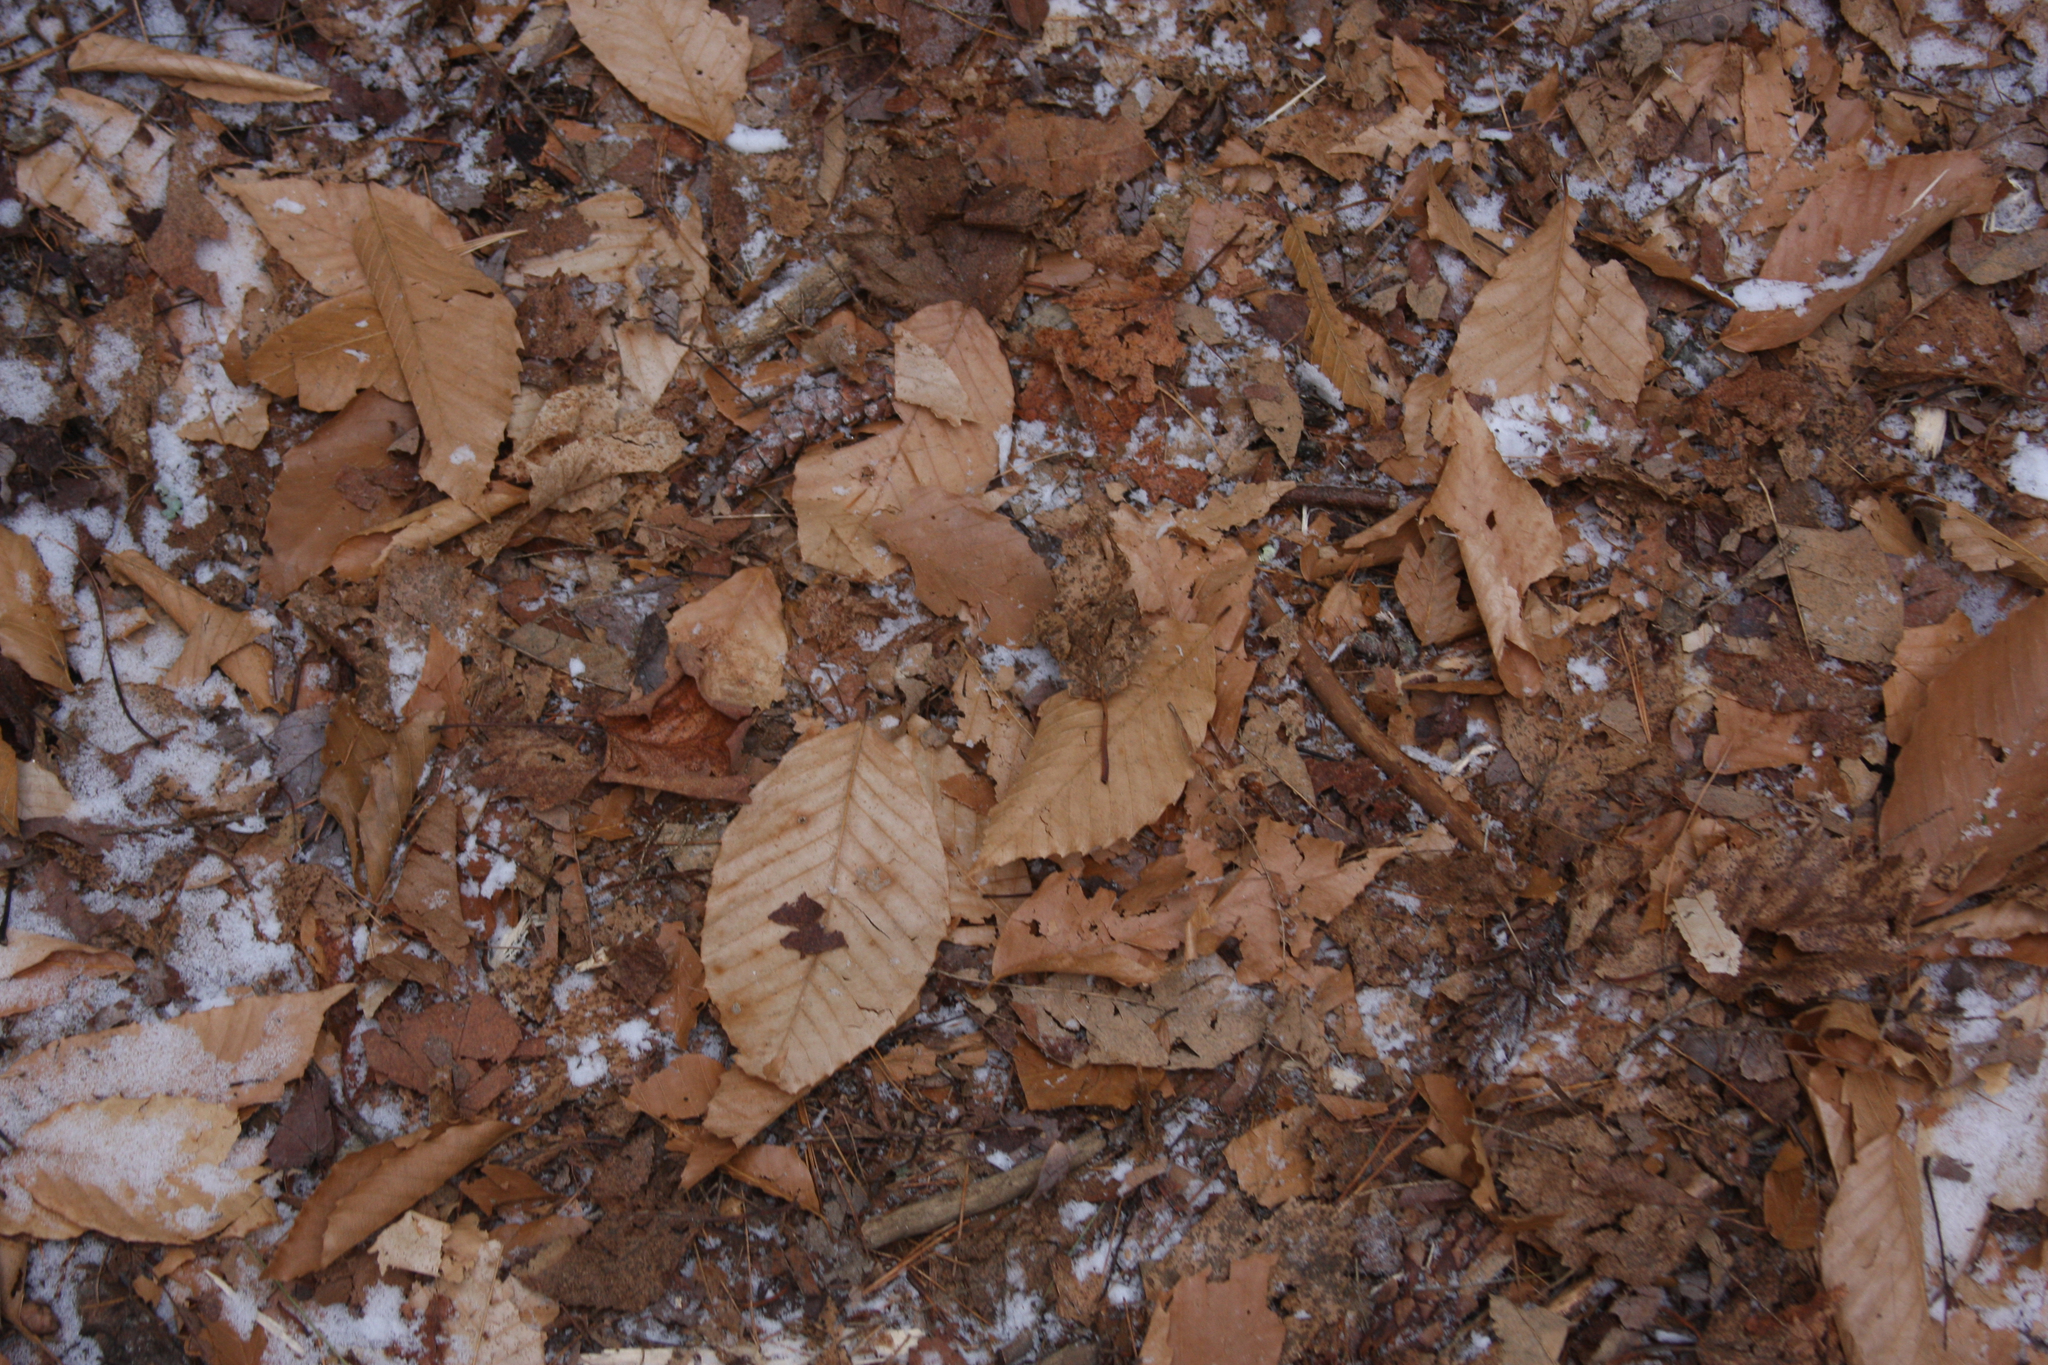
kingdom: Plantae
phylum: Tracheophyta
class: Magnoliopsida
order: Fagales
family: Fagaceae
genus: Fagus
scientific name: Fagus grandifolia
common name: American beech
